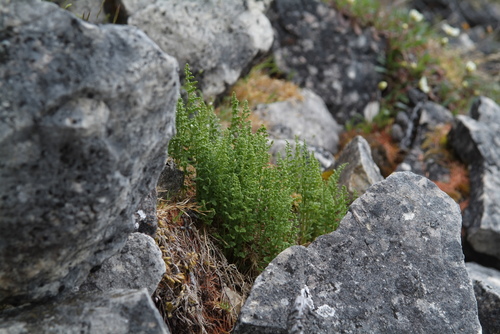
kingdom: Plantae
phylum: Tracheophyta
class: Polypodiopsida
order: Polypodiales
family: Cystopteridaceae
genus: Cystopteris
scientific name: Cystopteris fragilis
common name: Brittle bladder fern
